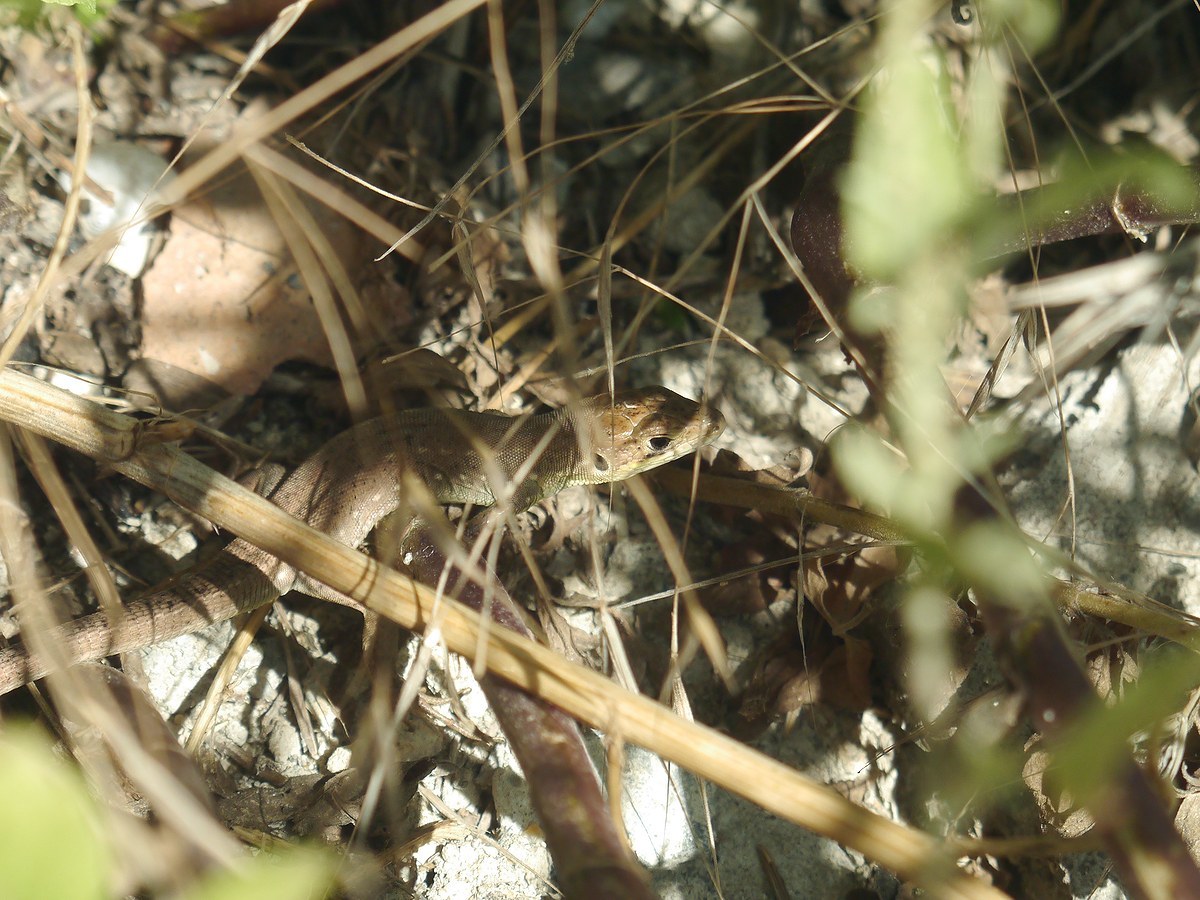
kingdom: Animalia
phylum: Chordata
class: Squamata
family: Lacertidae
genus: Lacerta
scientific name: Lacerta viridis
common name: European green lizard
